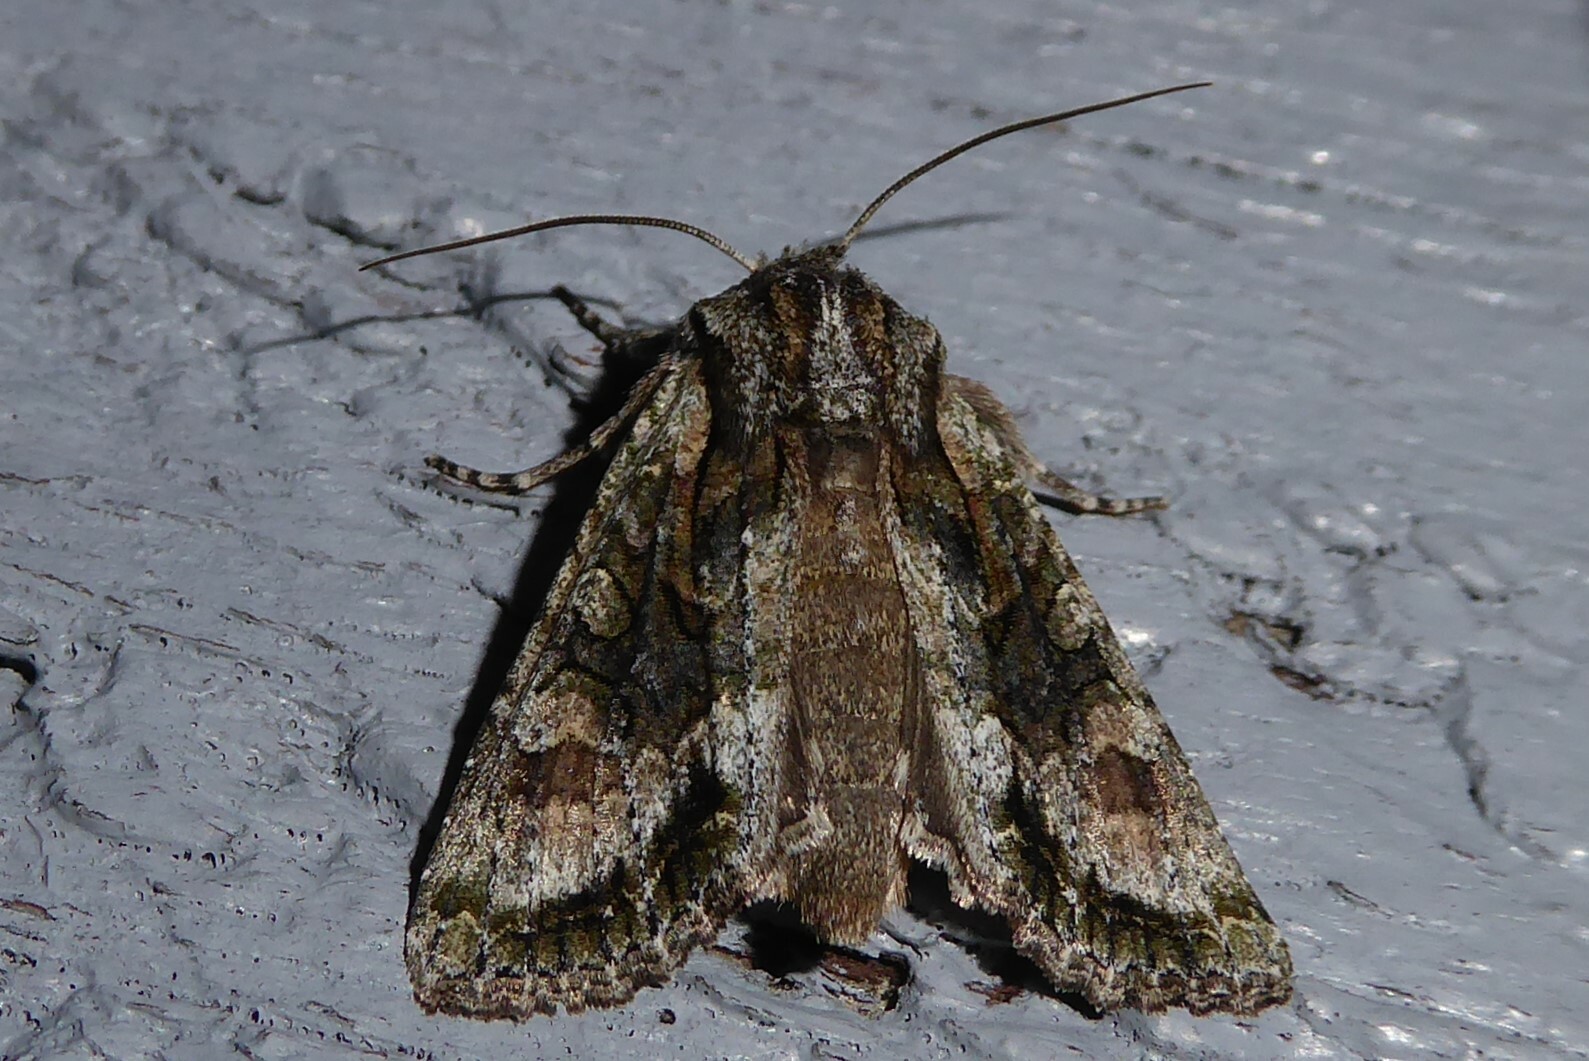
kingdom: Animalia
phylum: Arthropoda
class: Insecta
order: Lepidoptera
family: Noctuidae
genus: Ichneutica
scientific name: Ichneutica mutans
